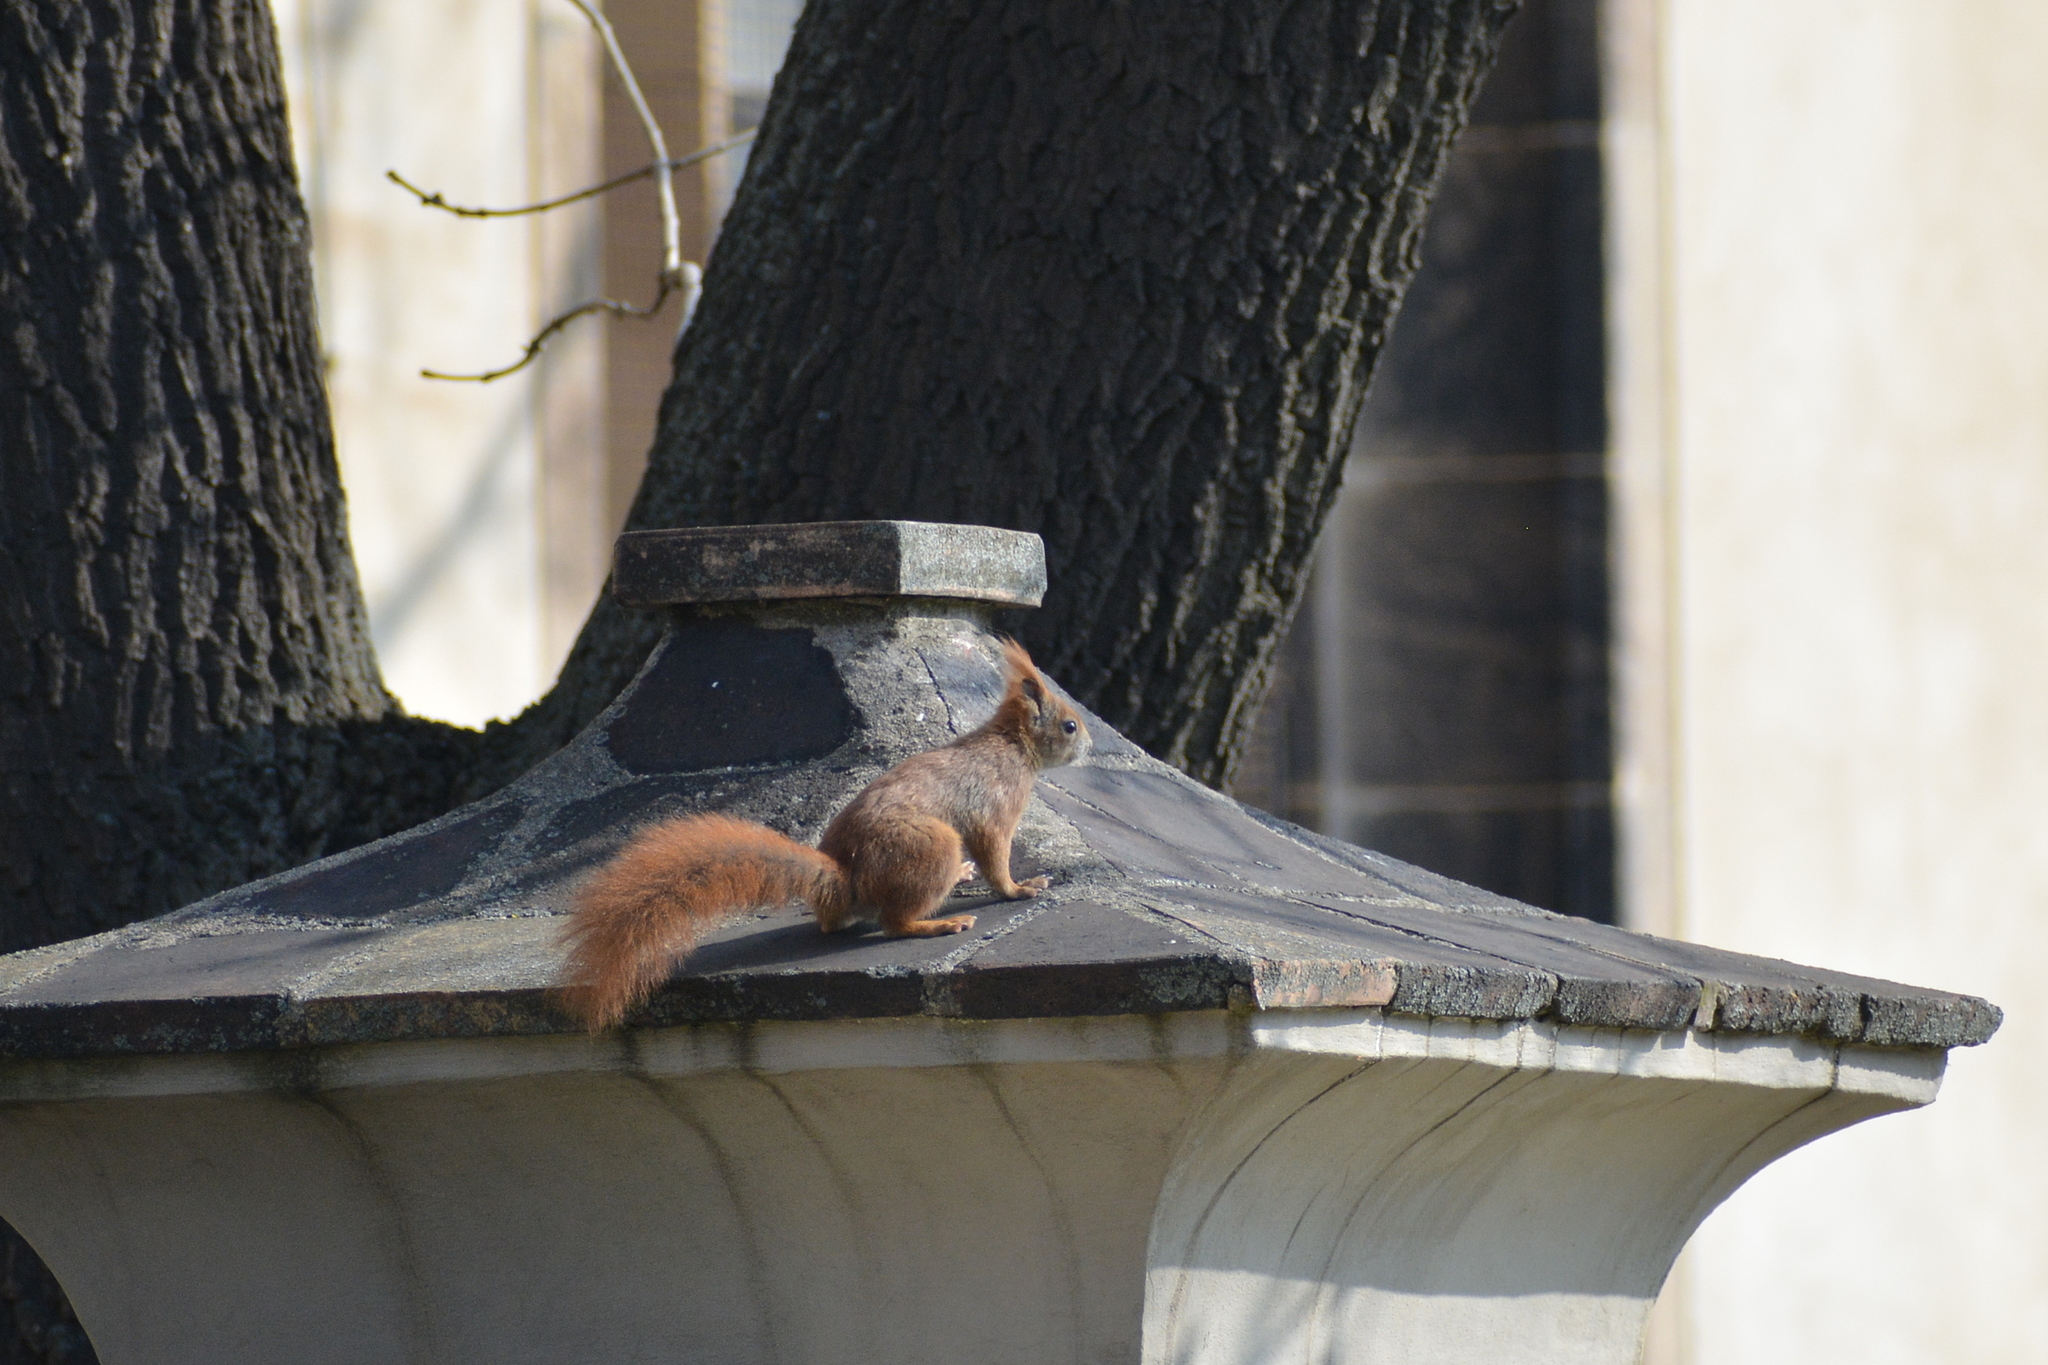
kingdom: Animalia
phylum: Chordata
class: Mammalia
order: Rodentia
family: Sciuridae
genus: Sciurus
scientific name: Sciurus vulgaris
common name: Eurasian red squirrel
